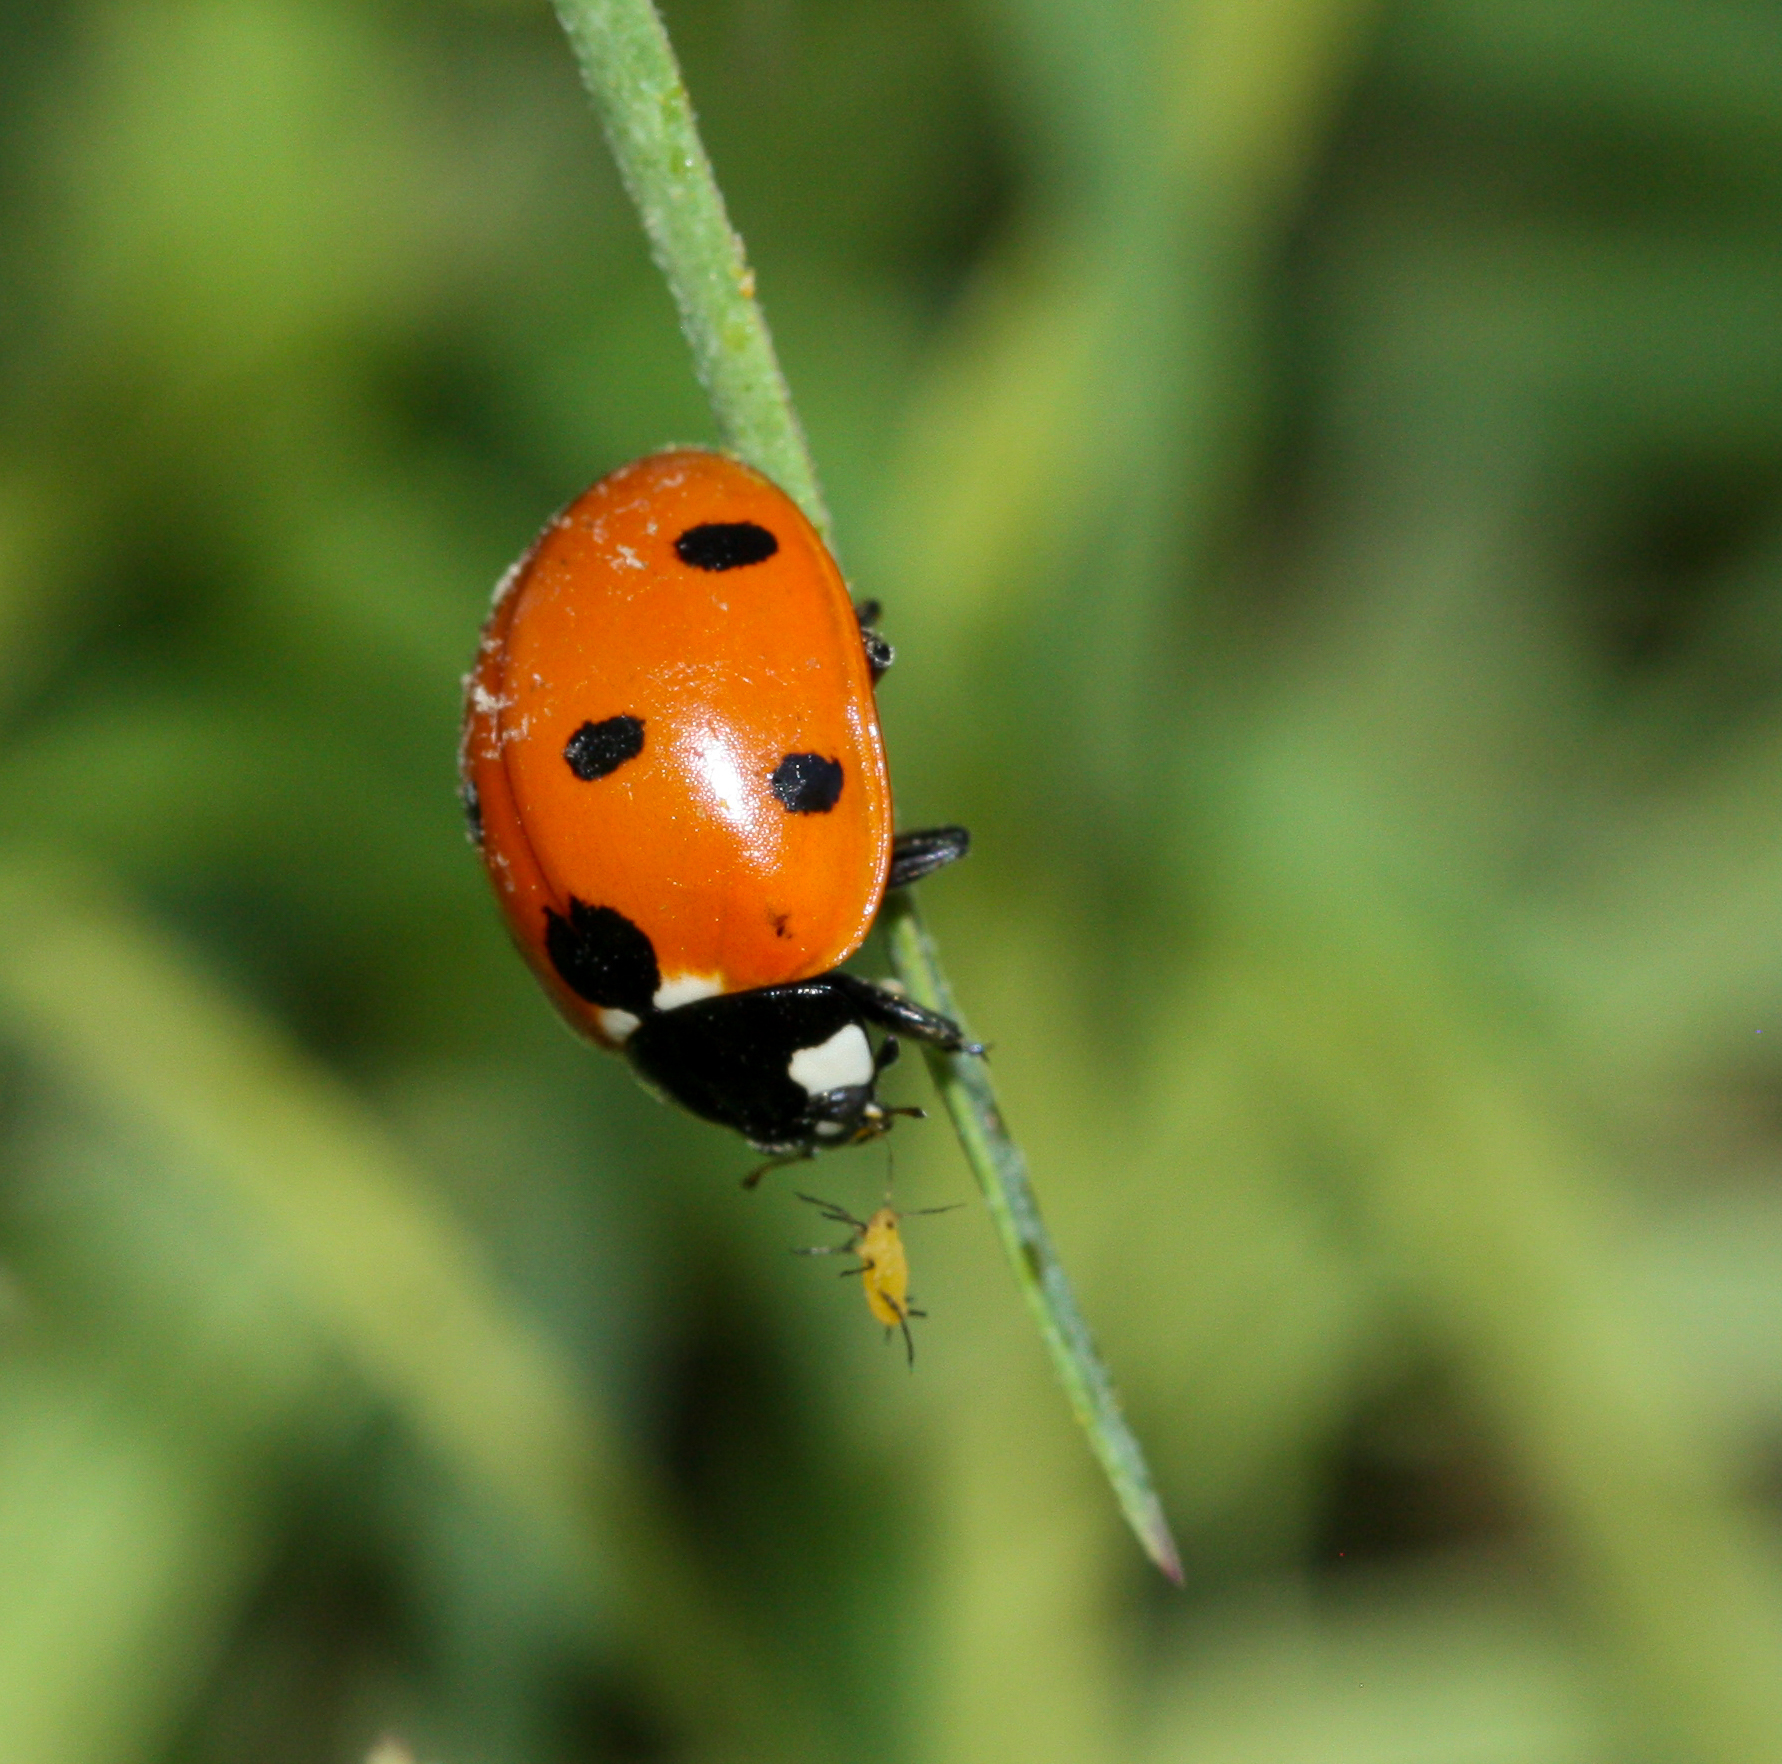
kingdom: Animalia
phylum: Arthropoda
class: Insecta
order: Coleoptera
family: Coccinellidae
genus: Coccinella
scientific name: Coccinella septempunctata
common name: Sevenspotted lady beetle
